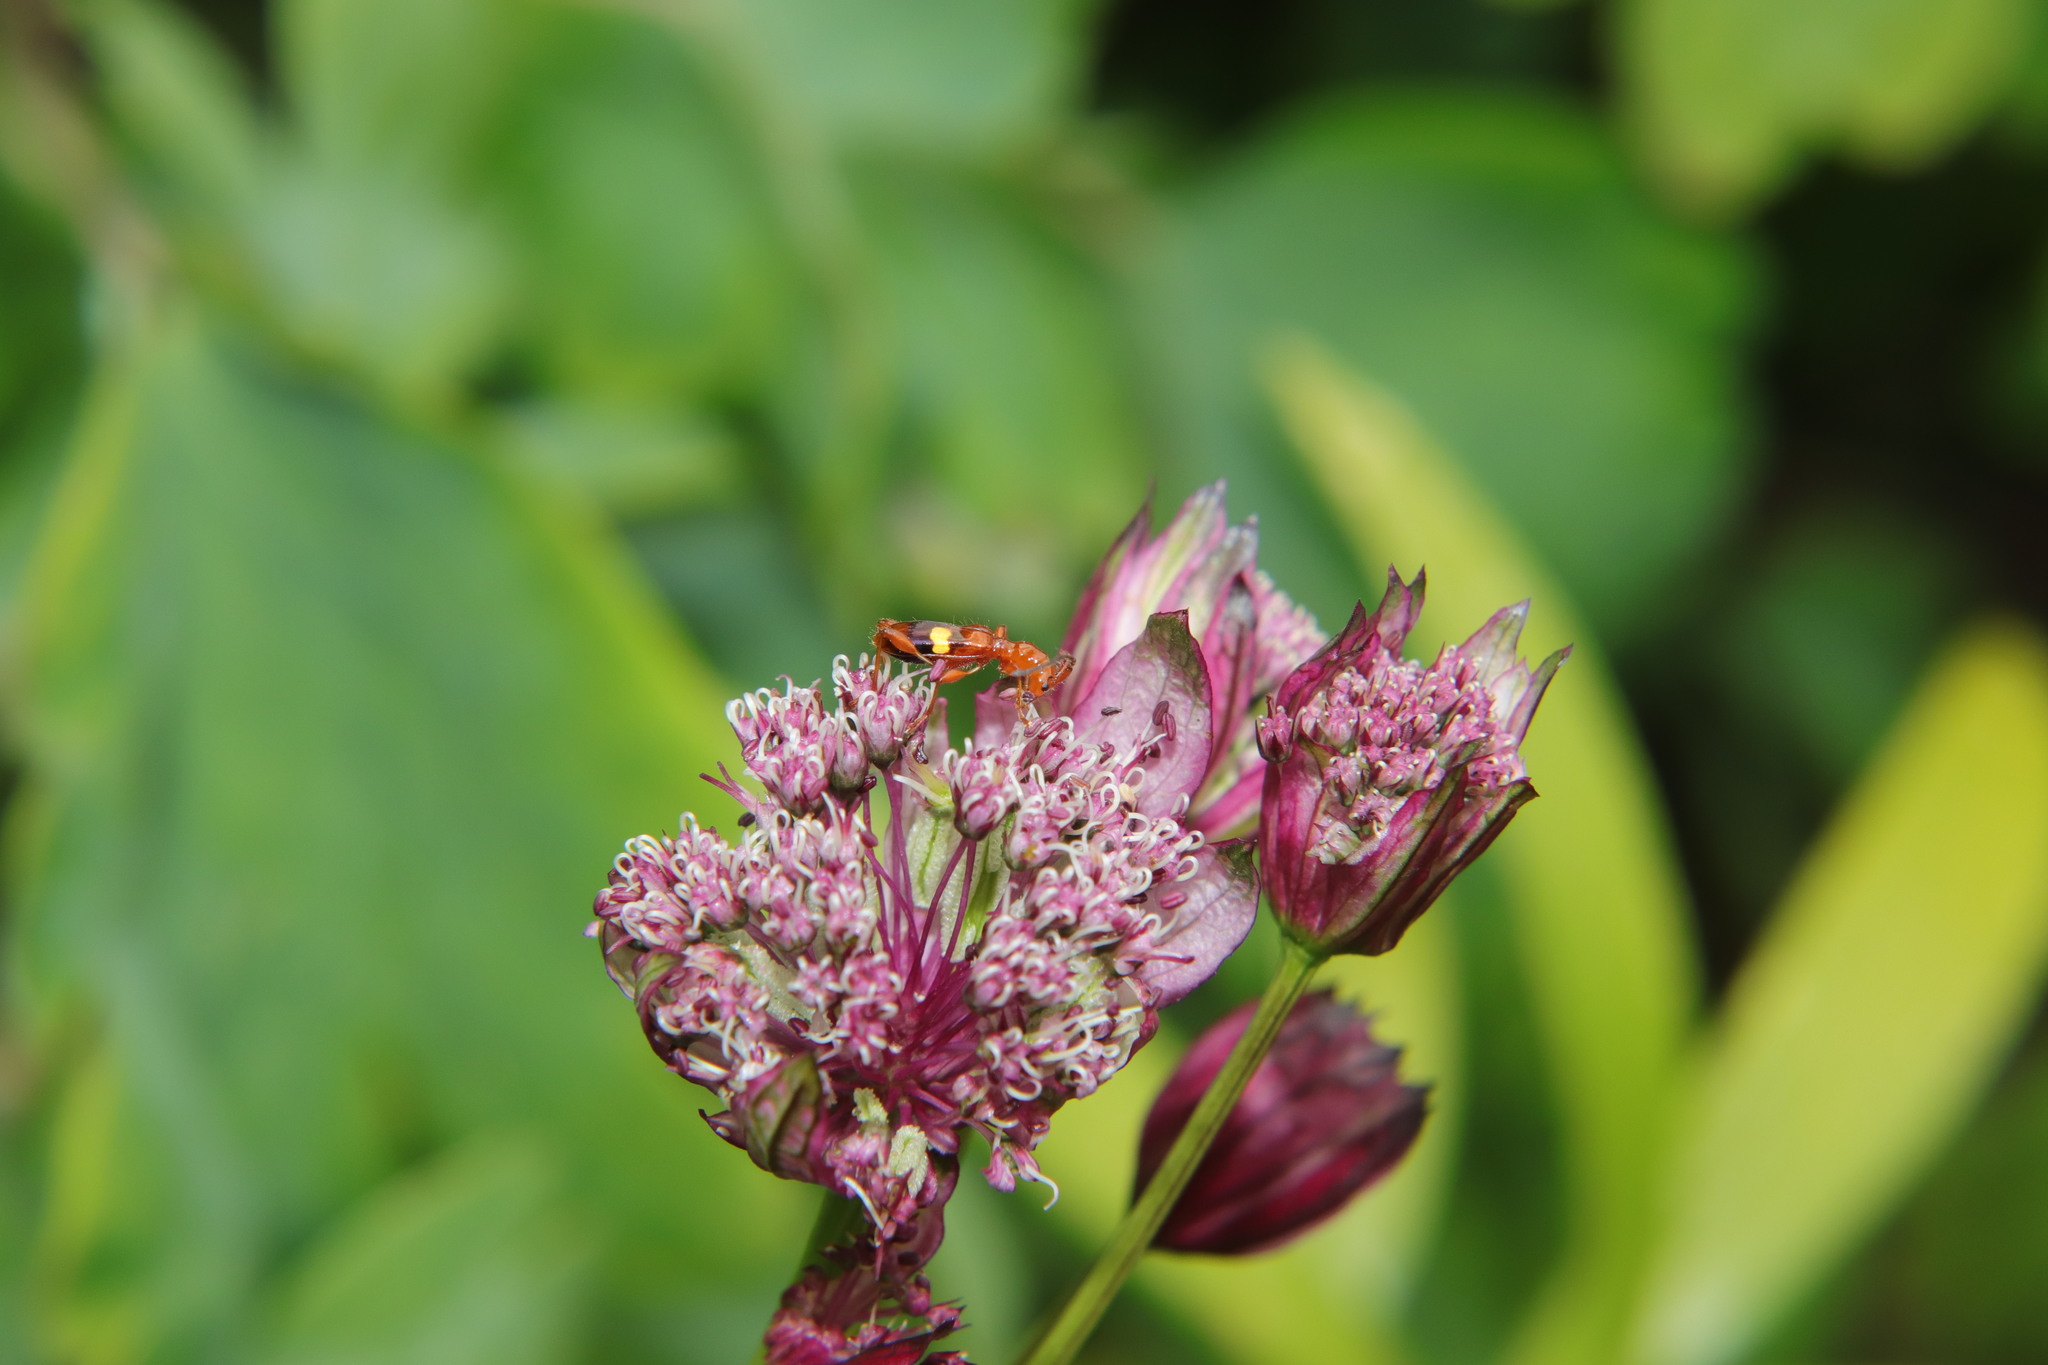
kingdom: Animalia
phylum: Arthropoda
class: Insecta
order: Coleoptera
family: Cerambycidae
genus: Zorion
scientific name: Zorion australe
